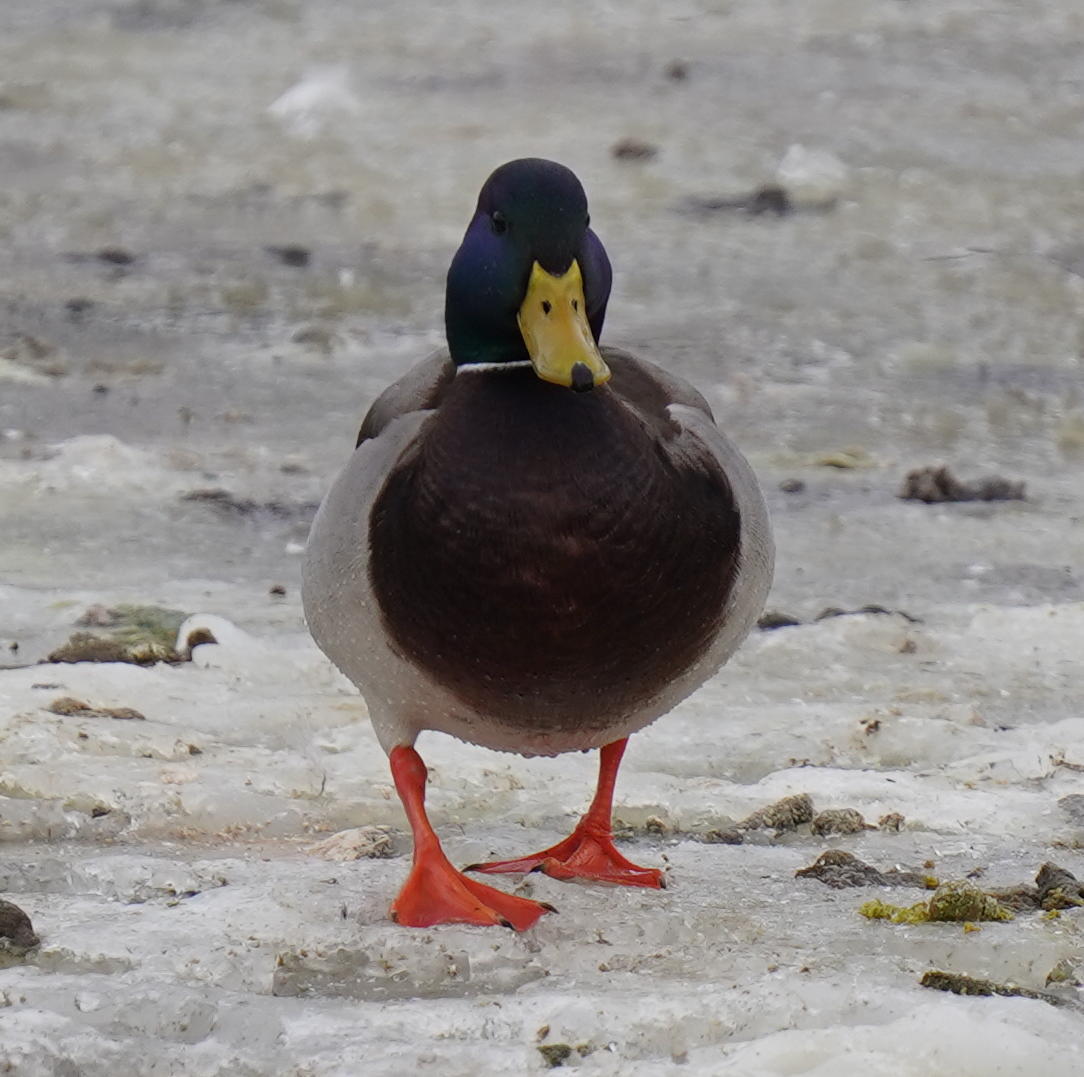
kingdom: Animalia
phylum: Chordata
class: Aves
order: Anseriformes
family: Anatidae
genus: Anas
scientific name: Anas platyrhynchos
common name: Mallard
